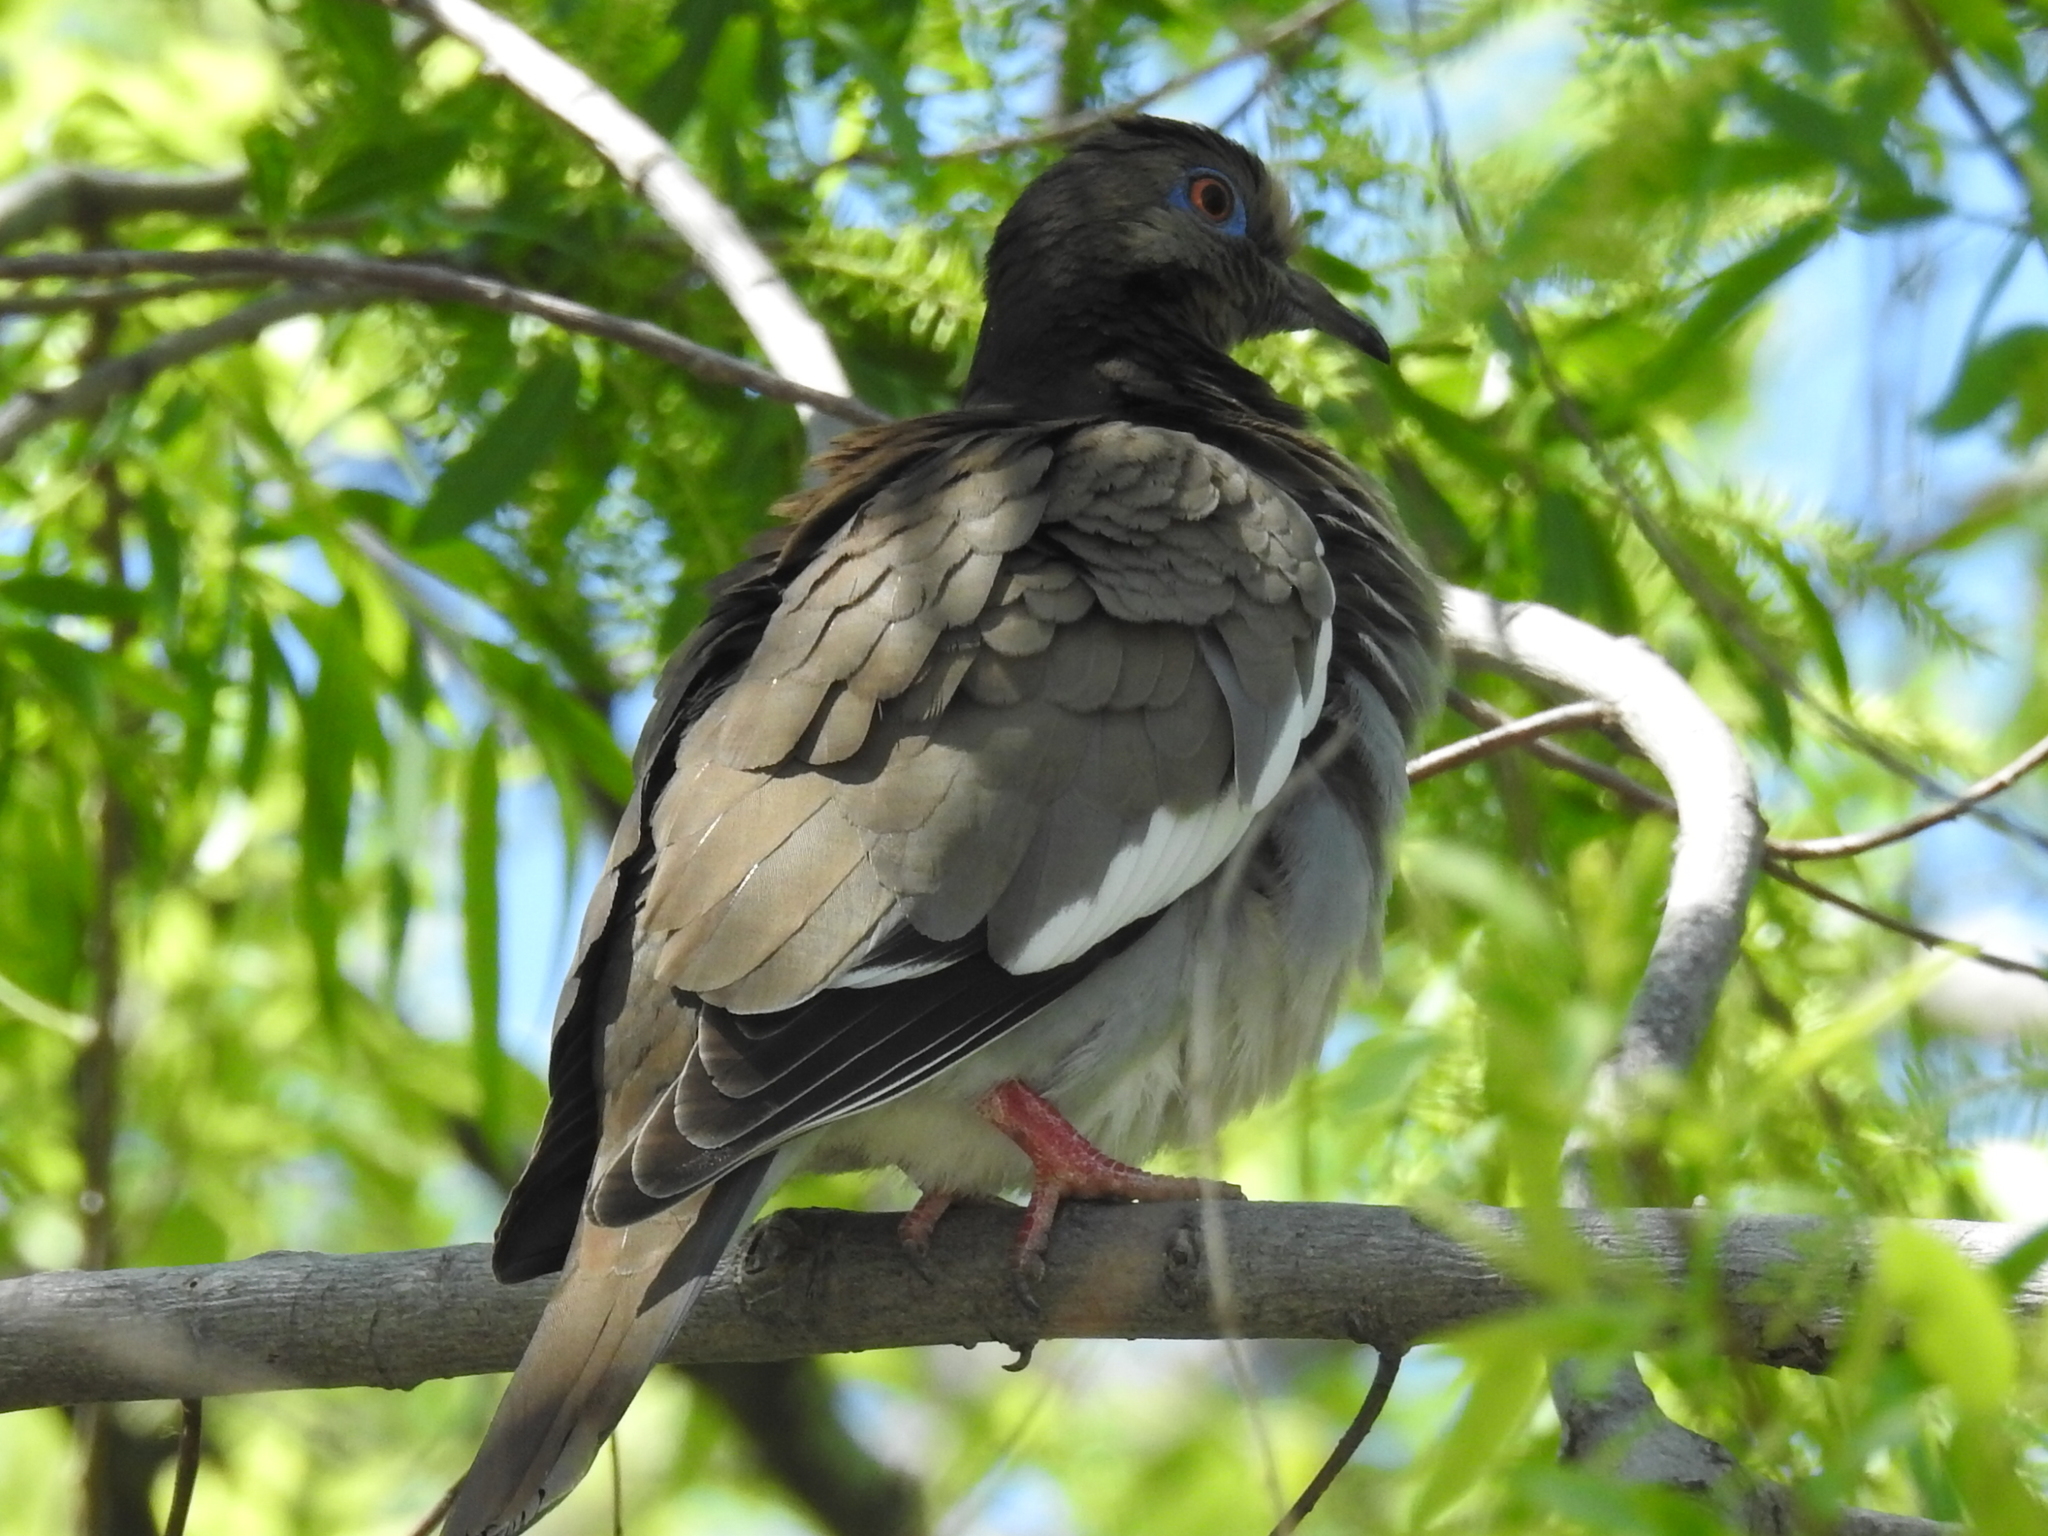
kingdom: Animalia
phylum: Chordata
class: Aves
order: Columbiformes
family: Columbidae
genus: Zenaida
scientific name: Zenaida asiatica
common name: White-winged dove
